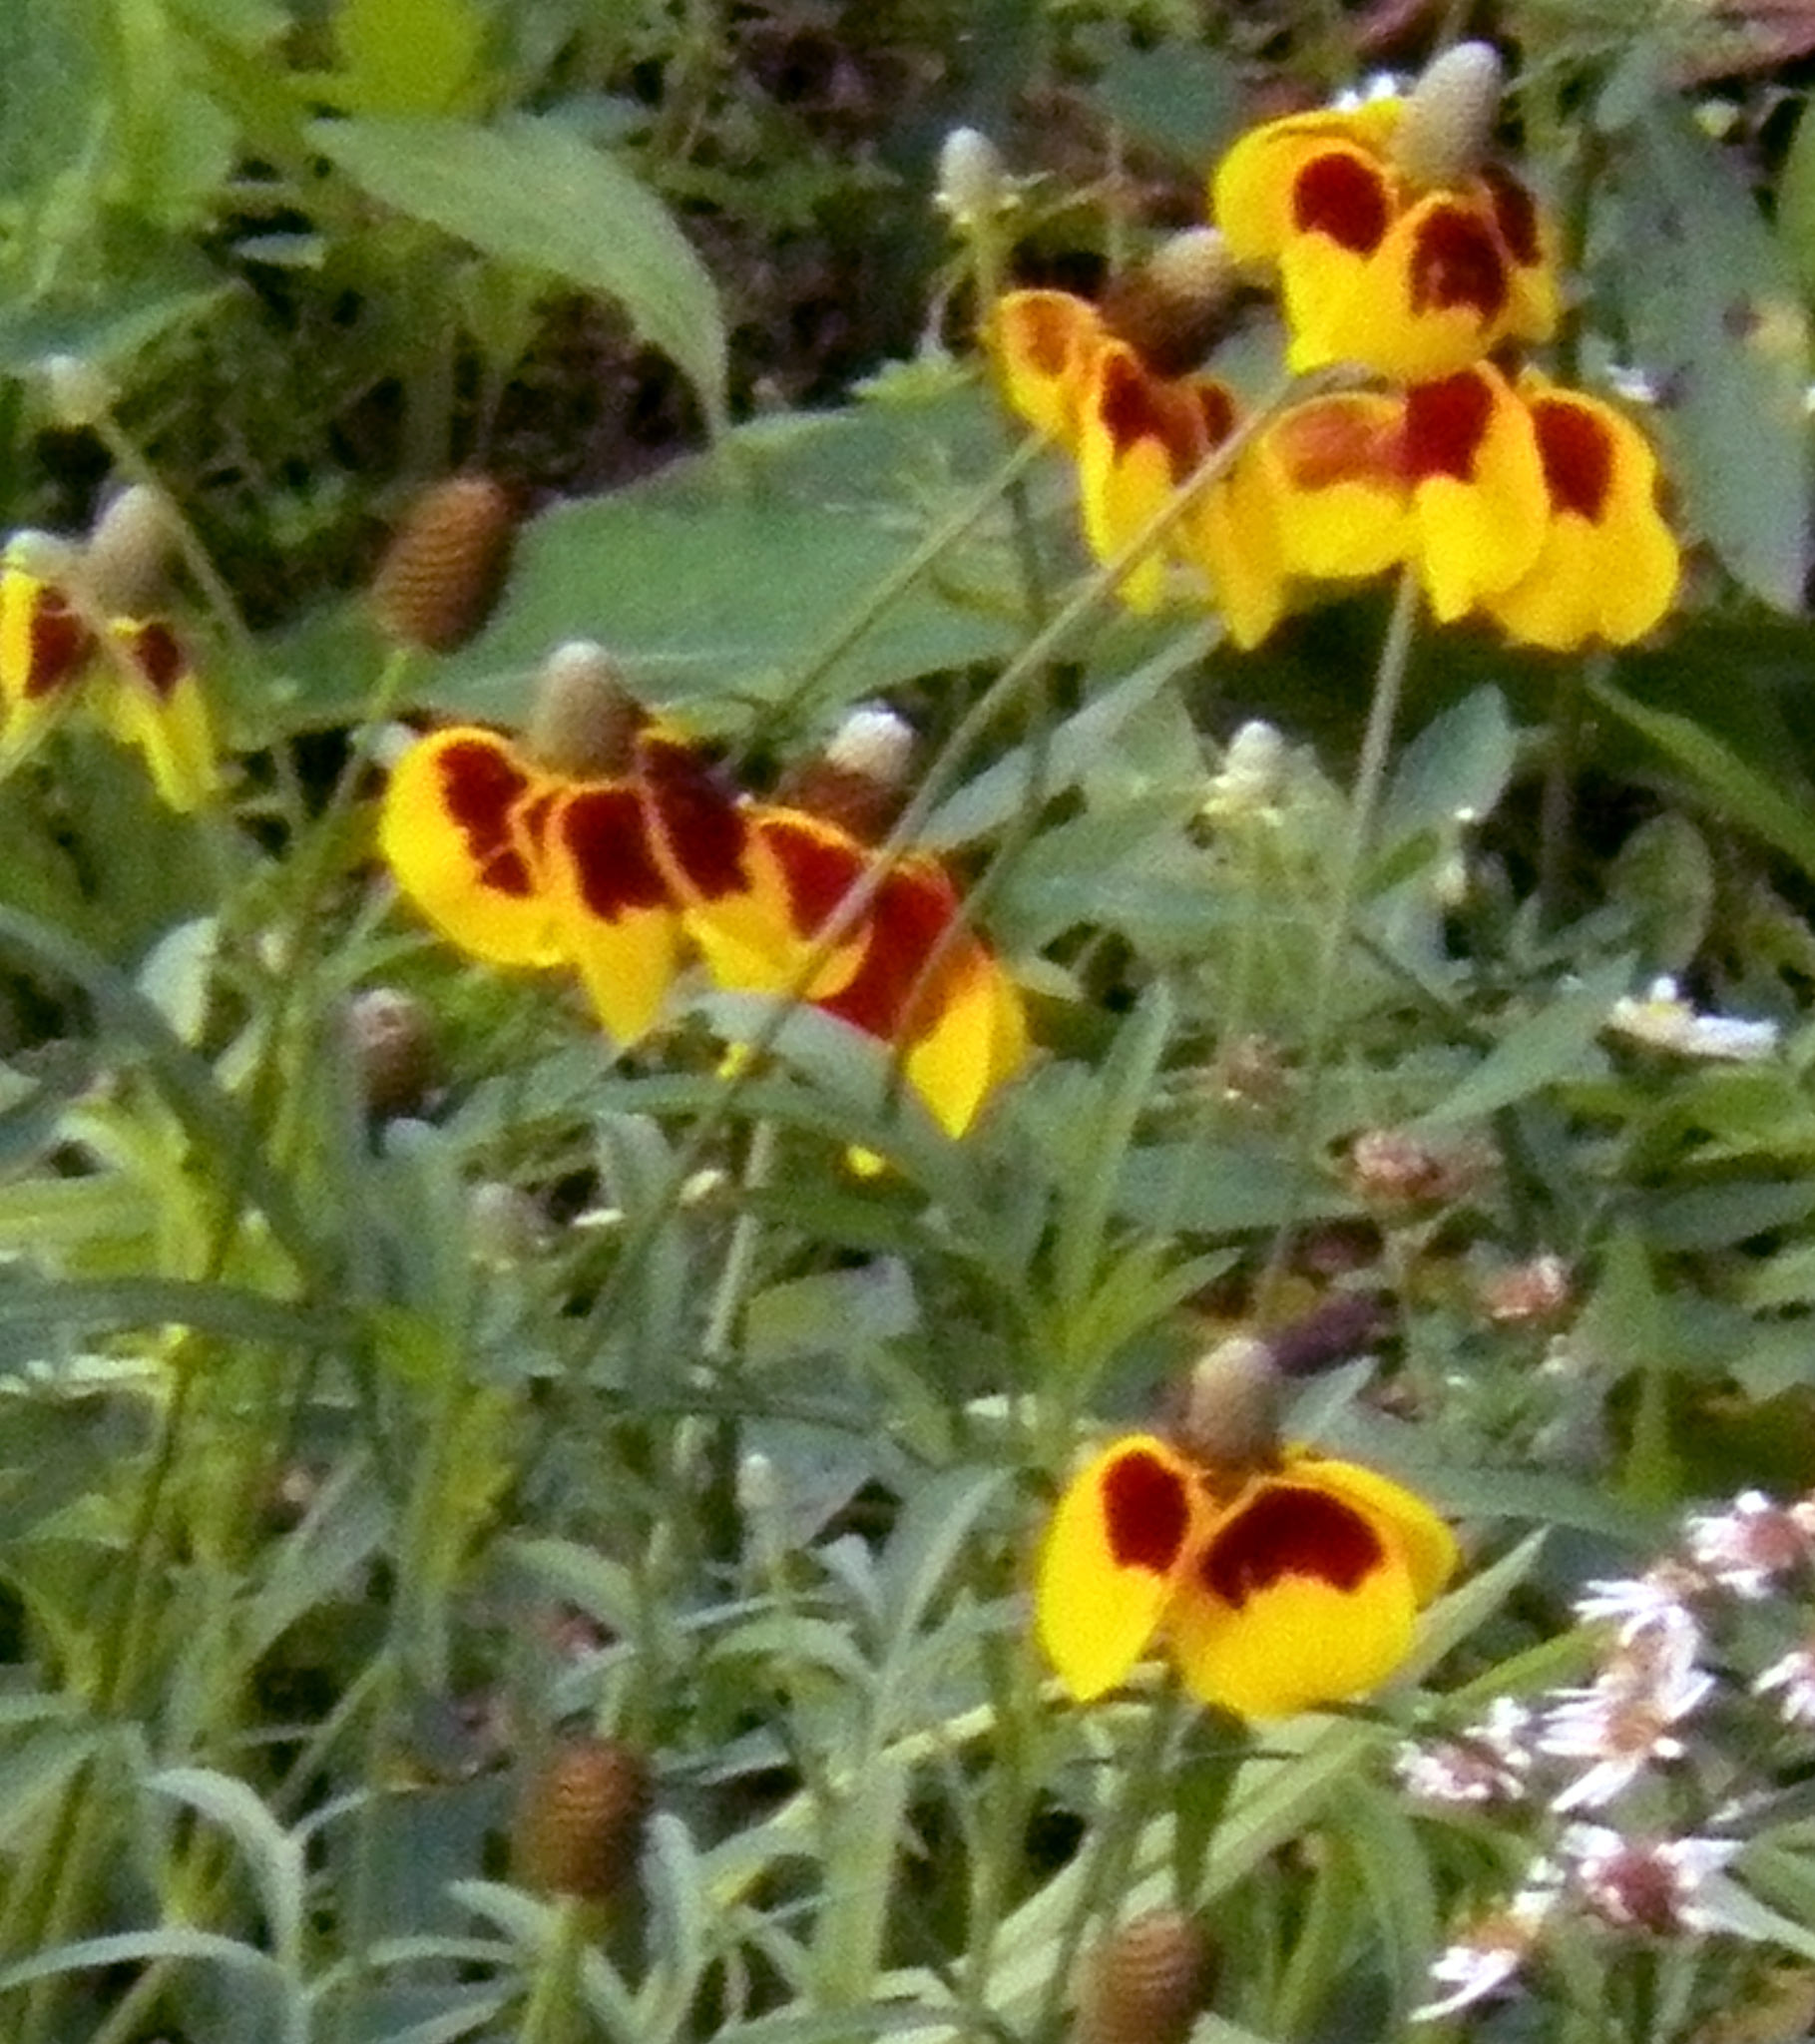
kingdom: Plantae
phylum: Tracheophyta
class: Magnoliopsida
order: Asterales
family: Asteraceae
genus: Ratibida
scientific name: Ratibida columnifera
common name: Prairie coneflower
